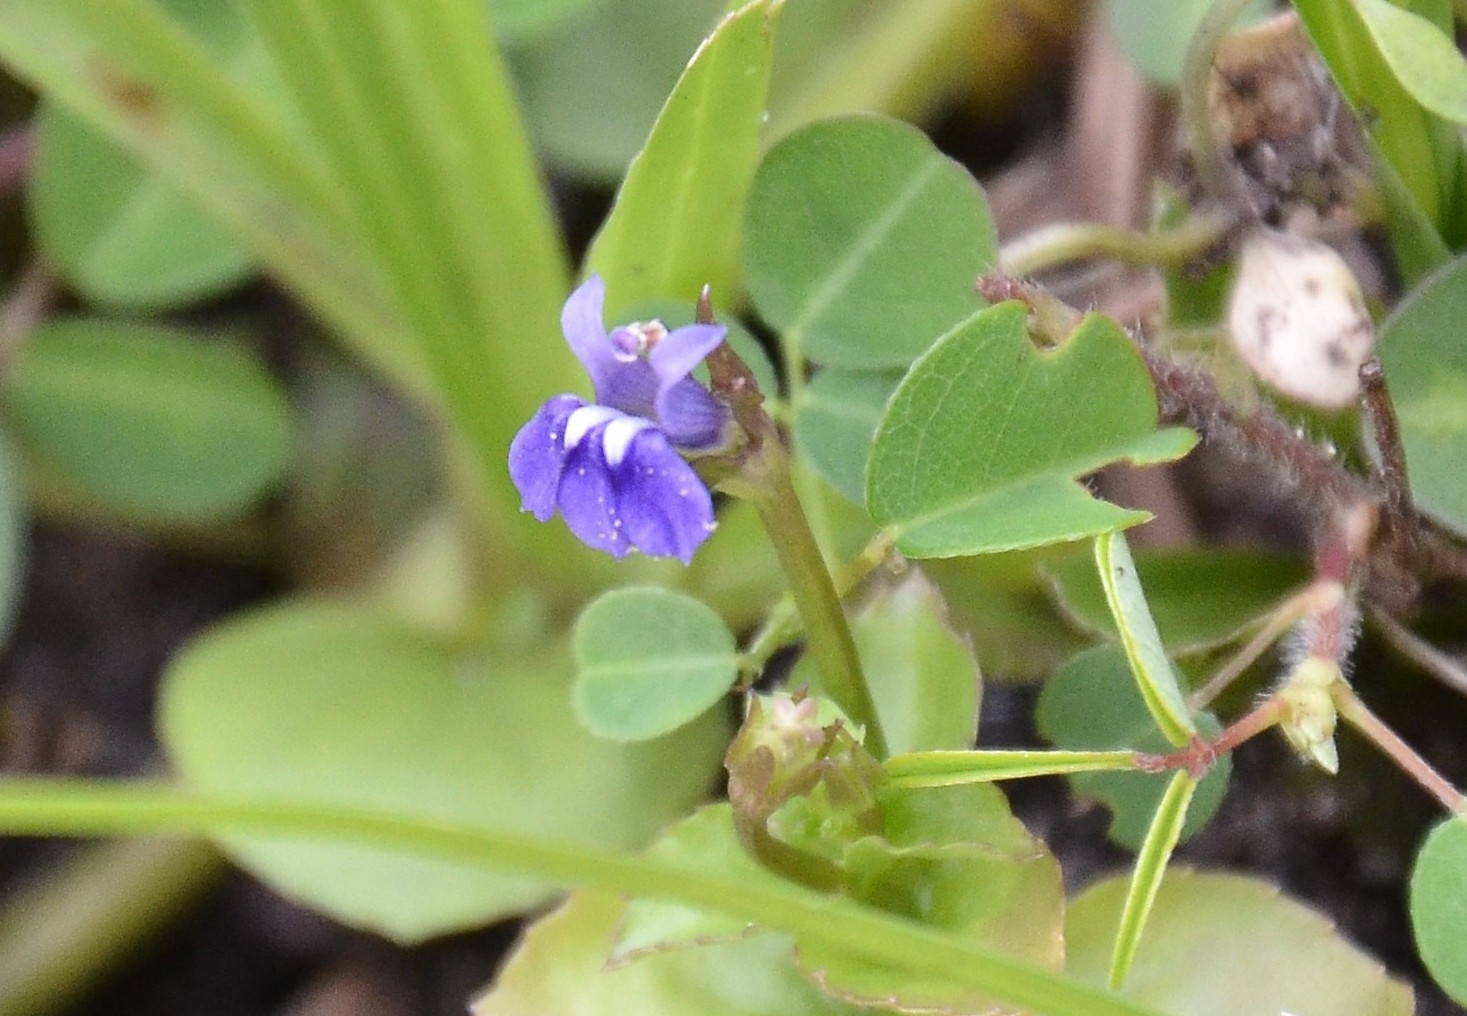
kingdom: Plantae
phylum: Tracheophyta
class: Magnoliopsida
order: Asterales
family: Campanulaceae
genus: Lobelia
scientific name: Lobelia alsinoides
